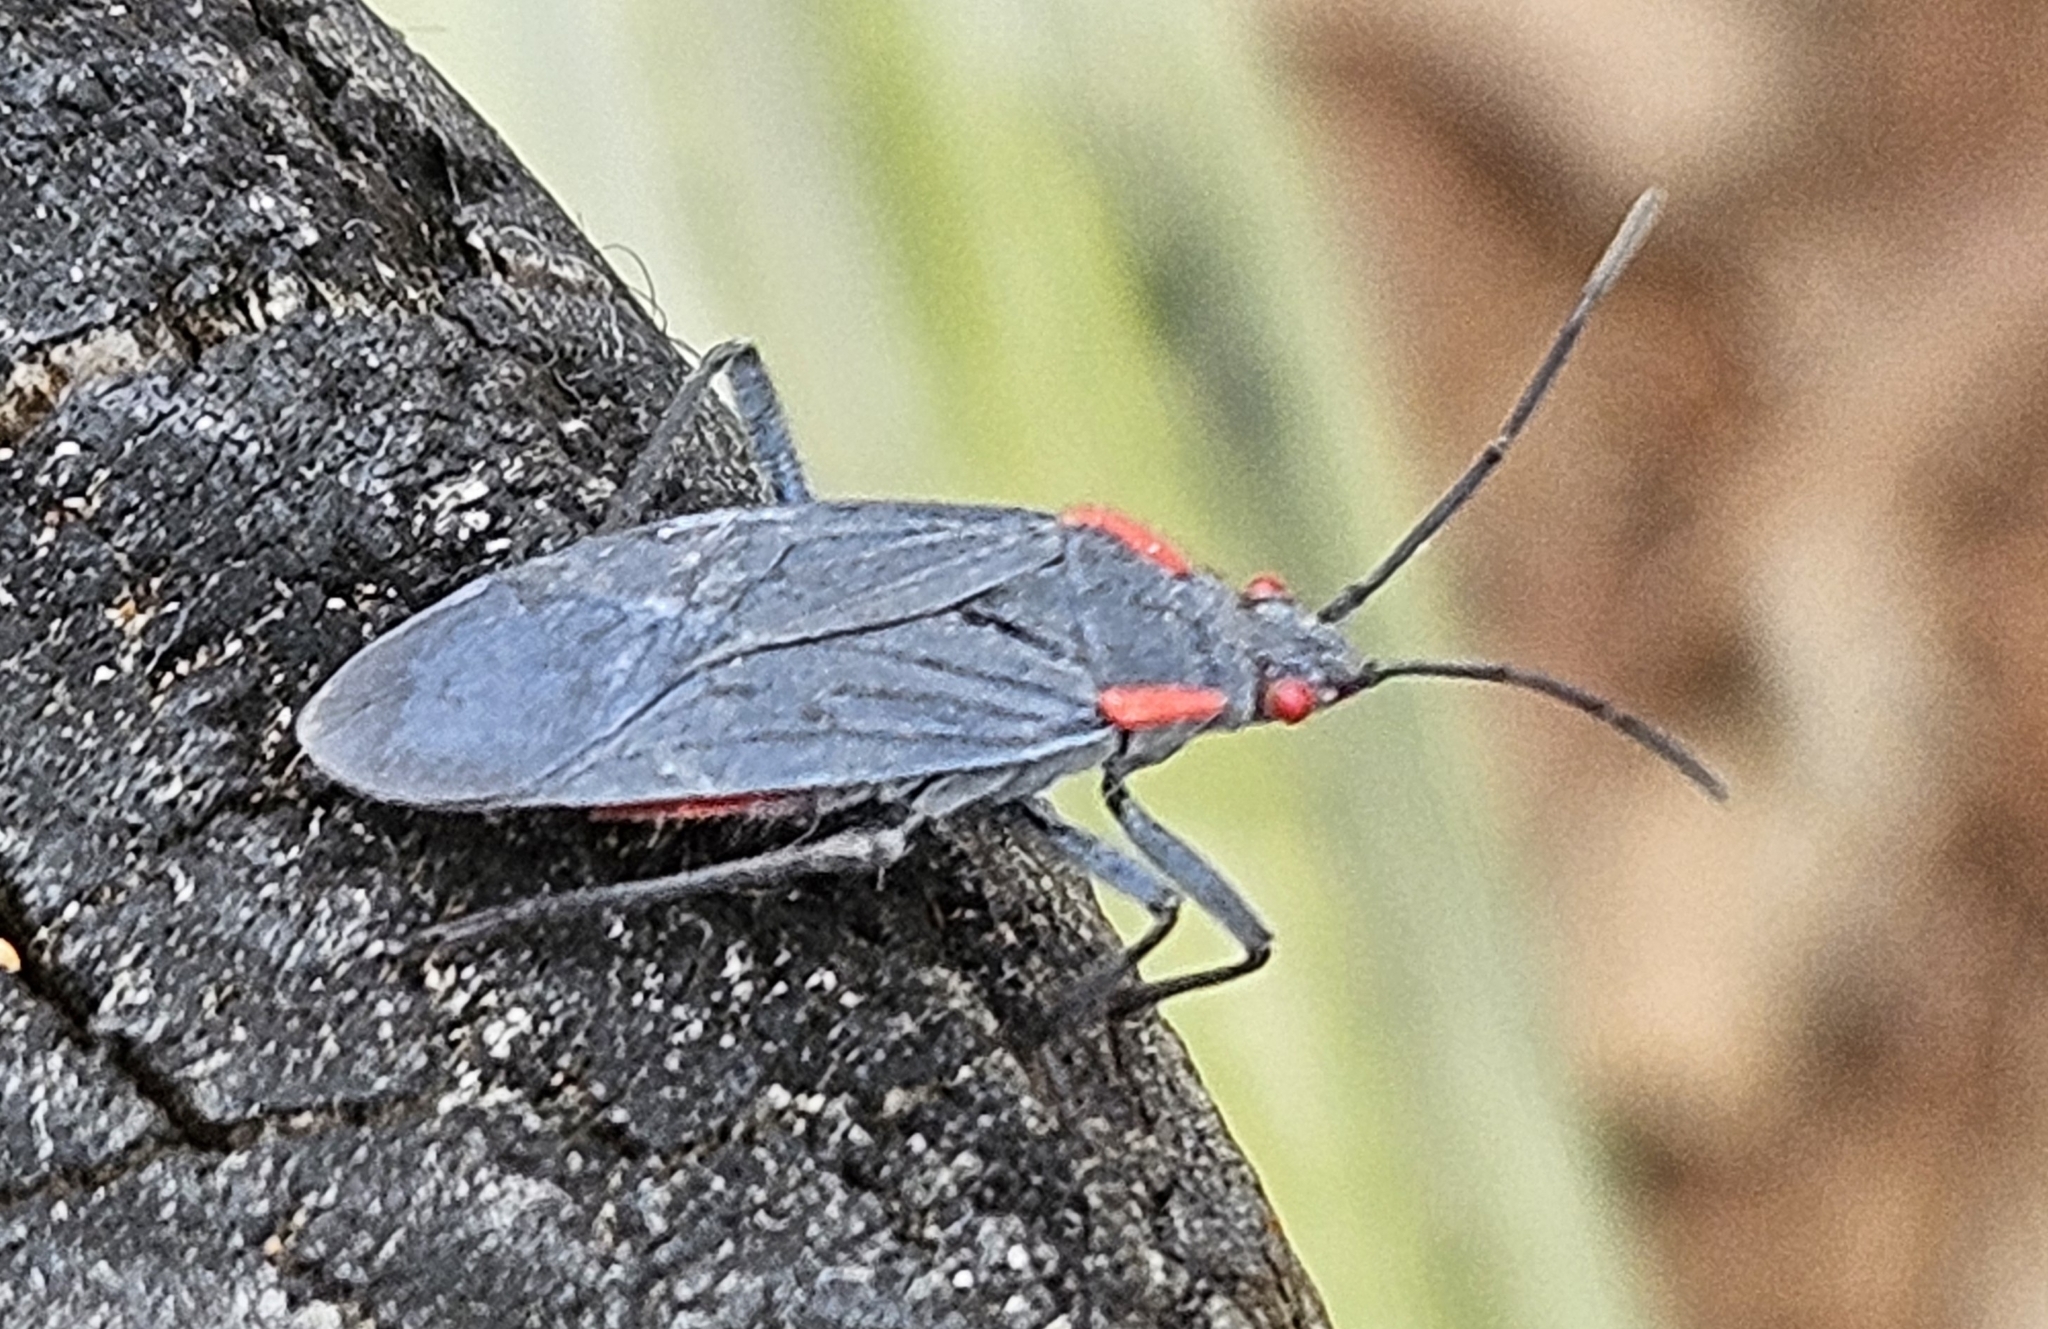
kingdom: Animalia
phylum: Arthropoda
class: Insecta
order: Hemiptera
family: Rhopalidae
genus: Jadera
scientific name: Jadera haematoloma
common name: Red-shouldered bug
